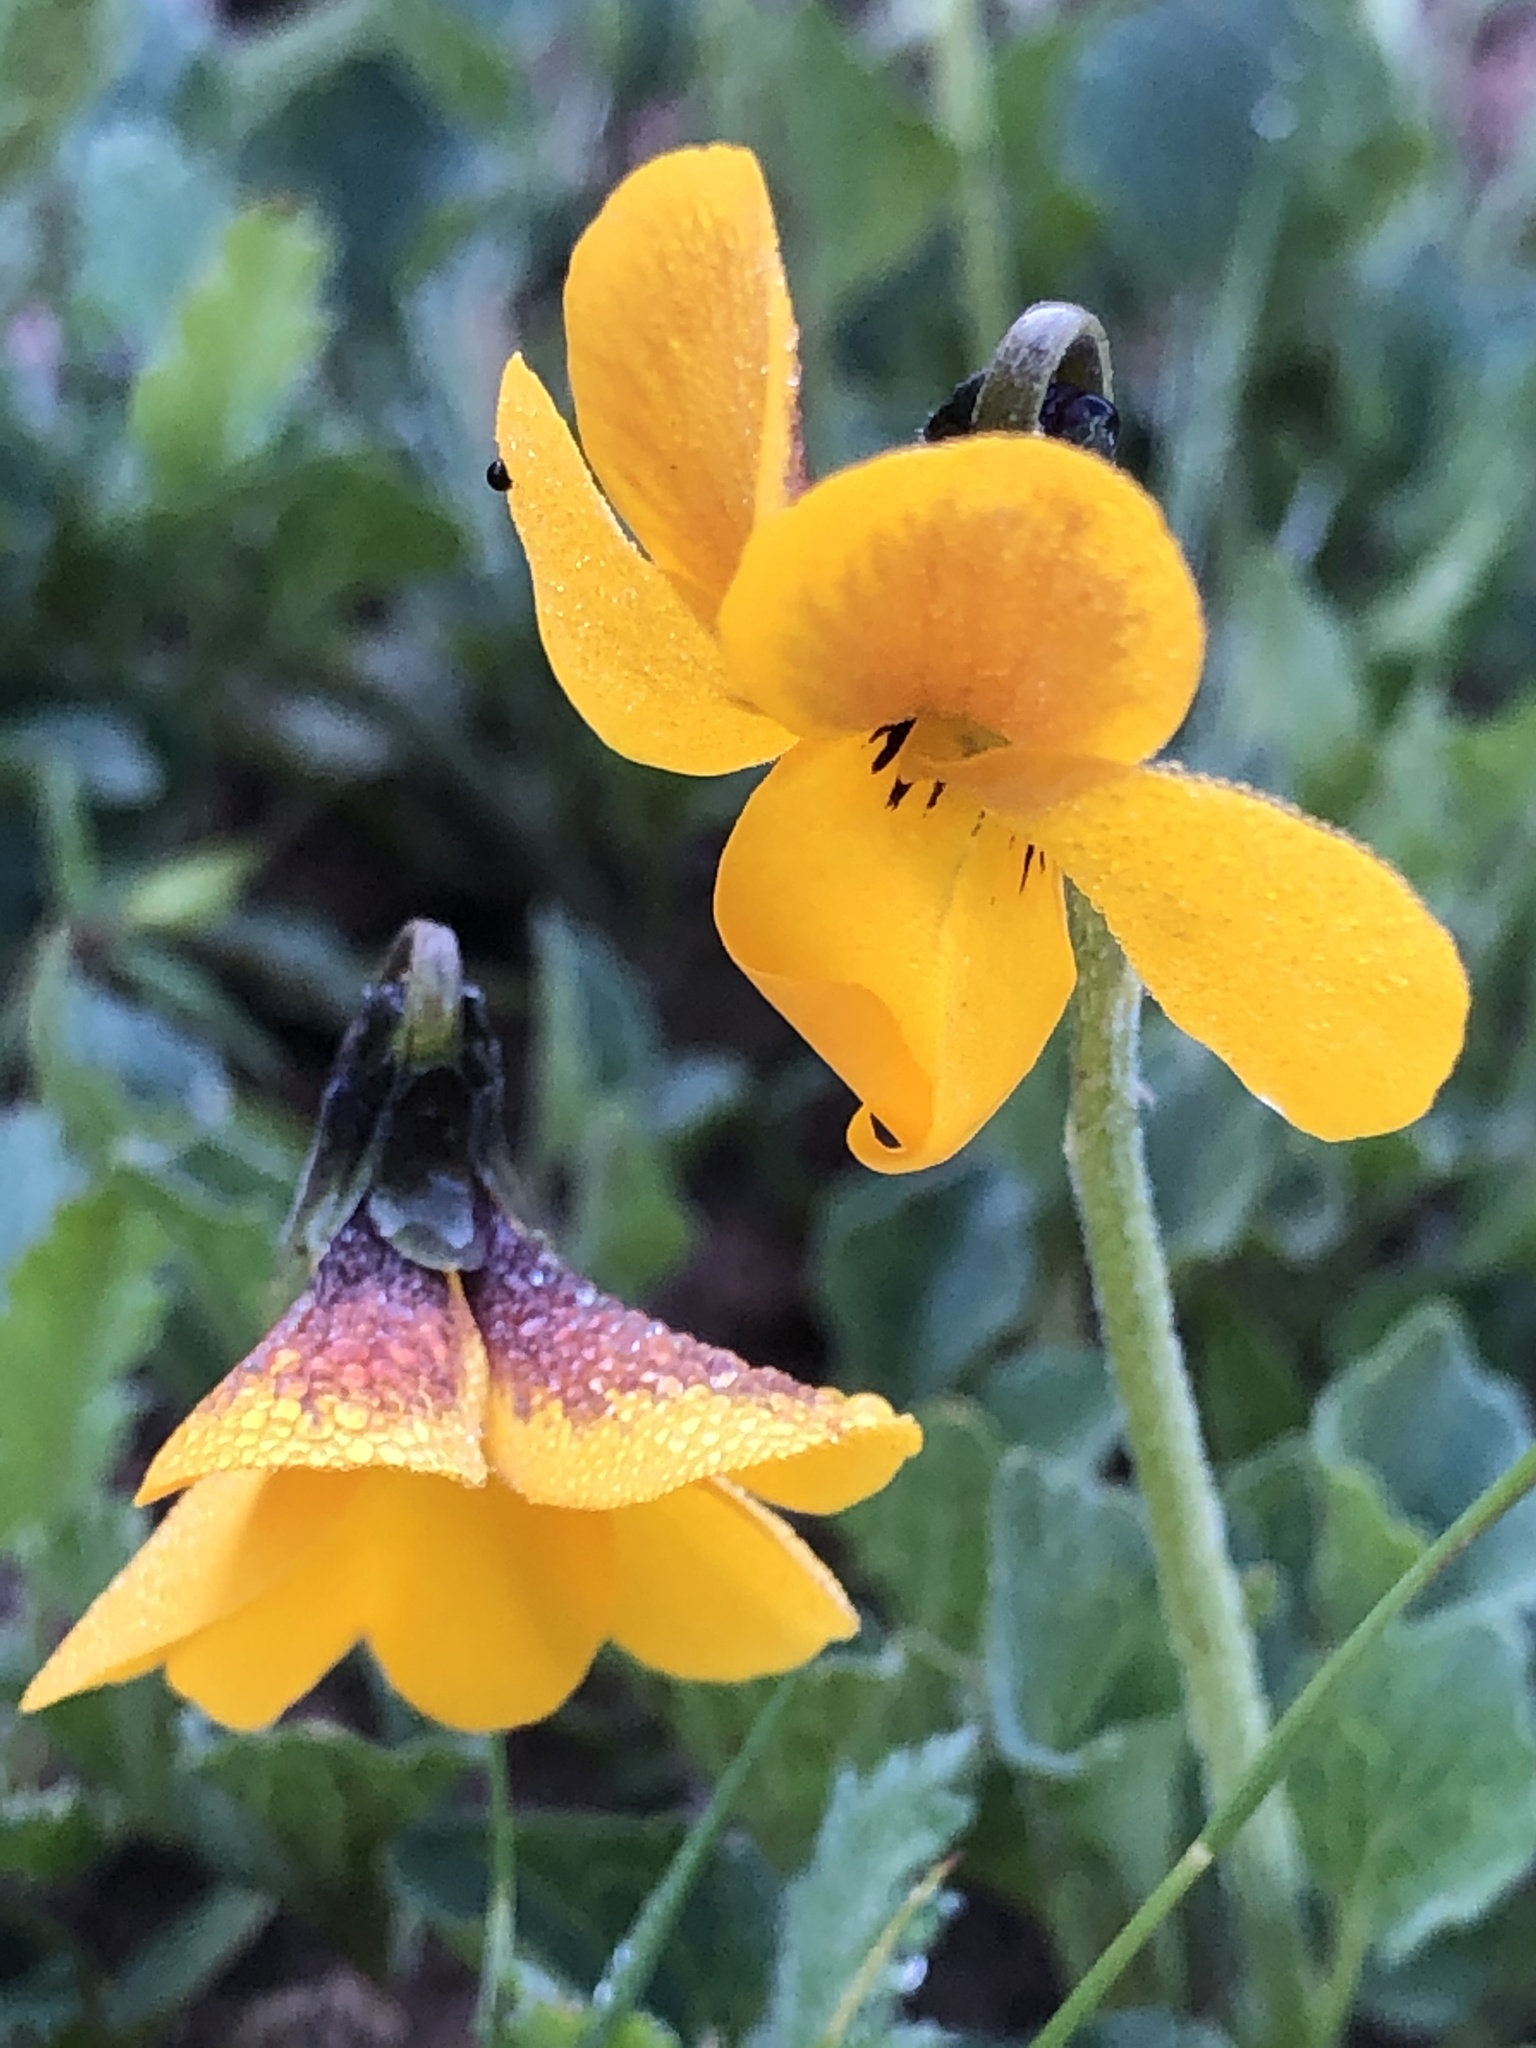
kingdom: Plantae
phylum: Tracheophyta
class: Magnoliopsida
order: Malpighiales
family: Violaceae
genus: Viola
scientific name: Viola pedunculata
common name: California golden violet
